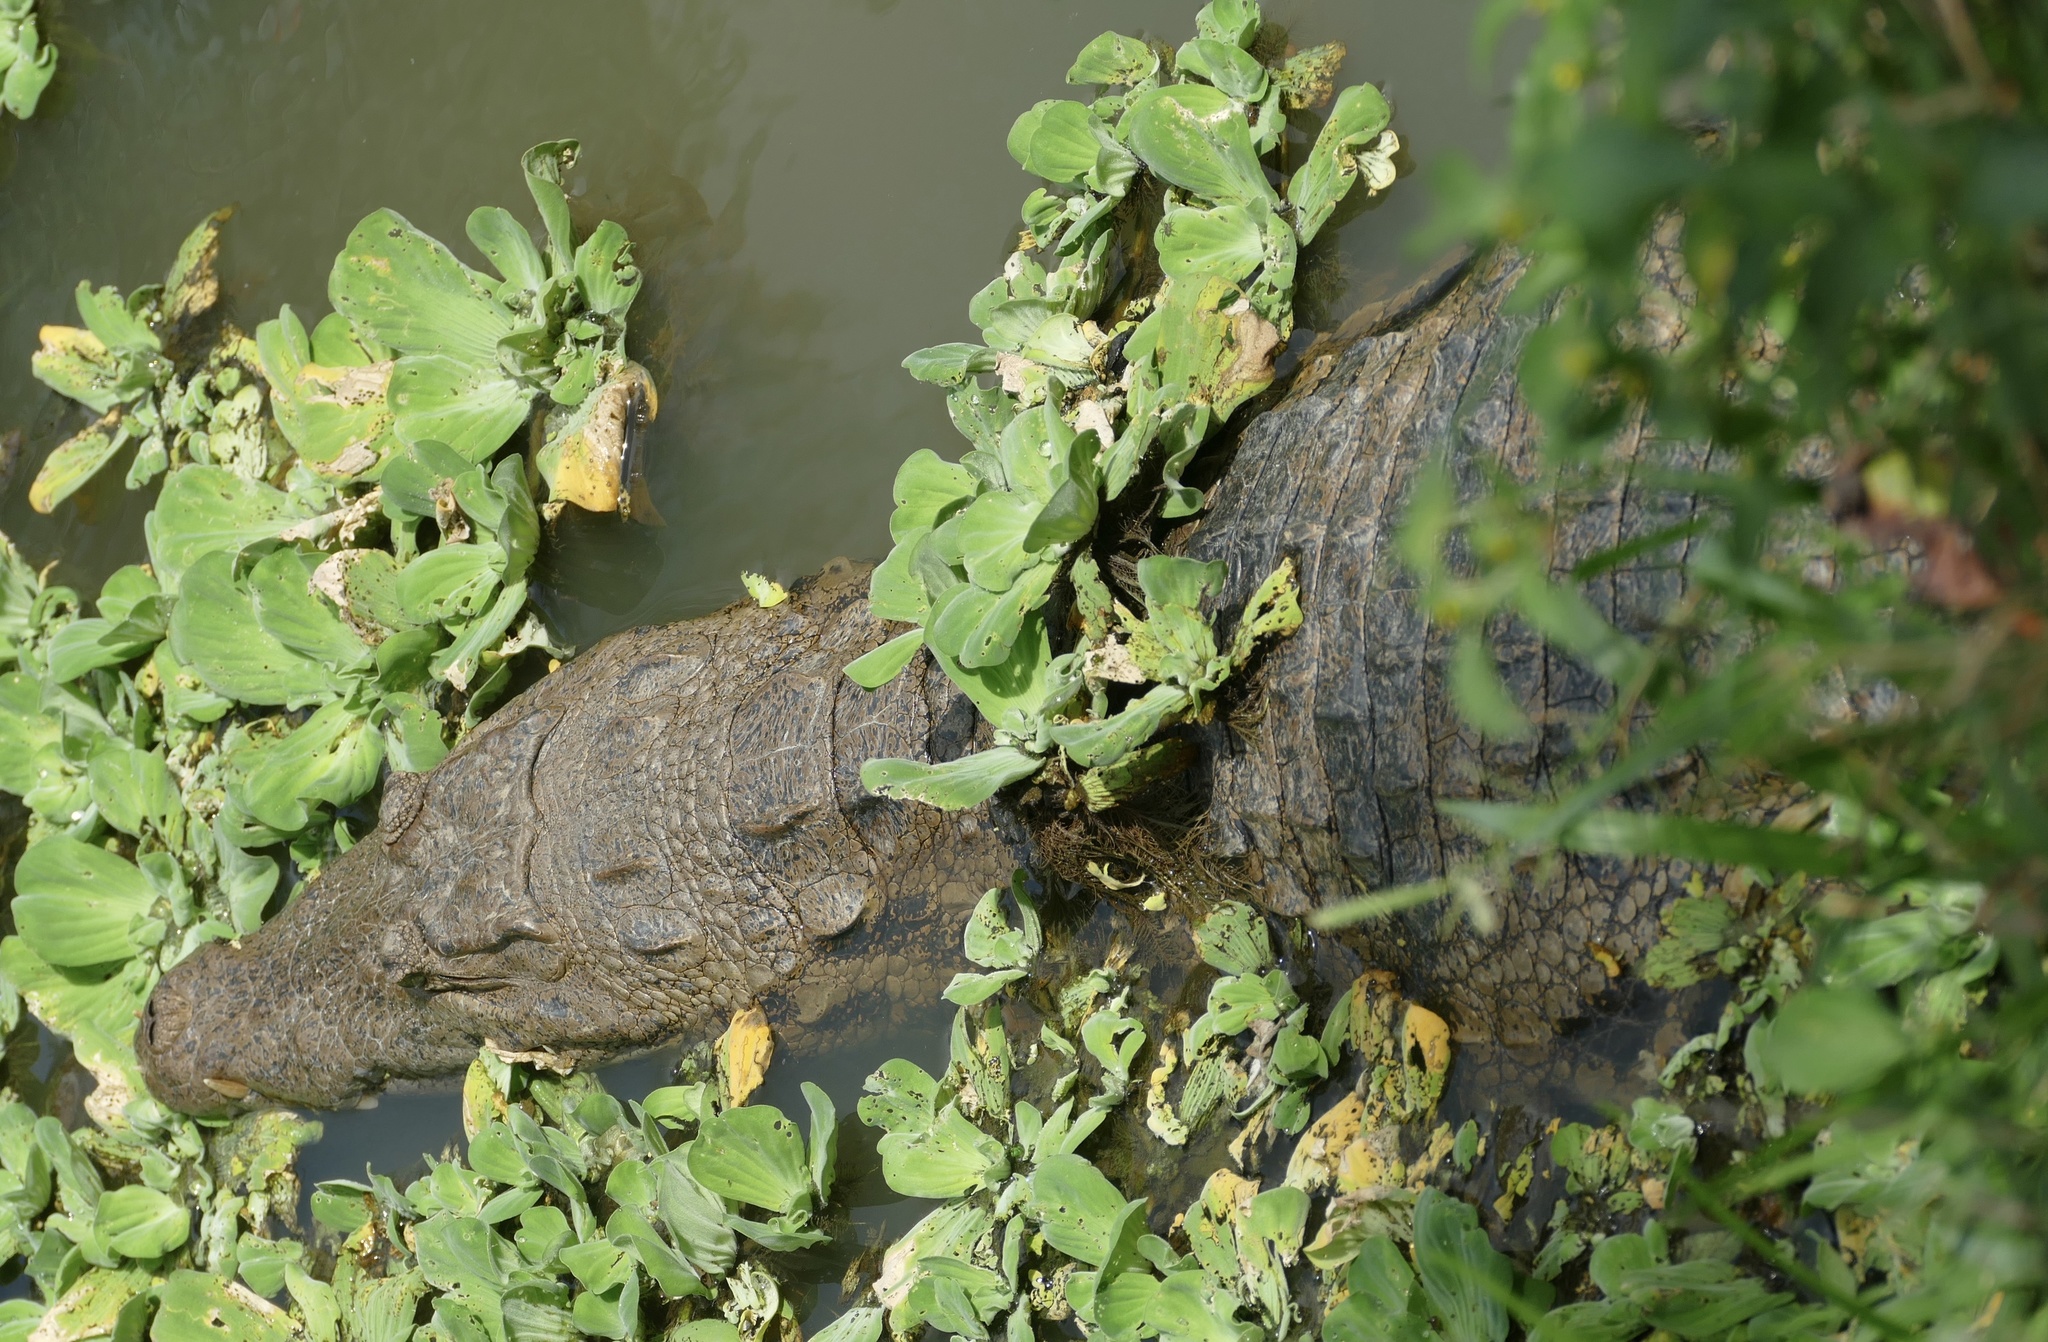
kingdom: Animalia
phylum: Chordata
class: Crocodylia
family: Crocodylidae
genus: Crocodylus
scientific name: Crocodylus suchus
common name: West african crocodile
